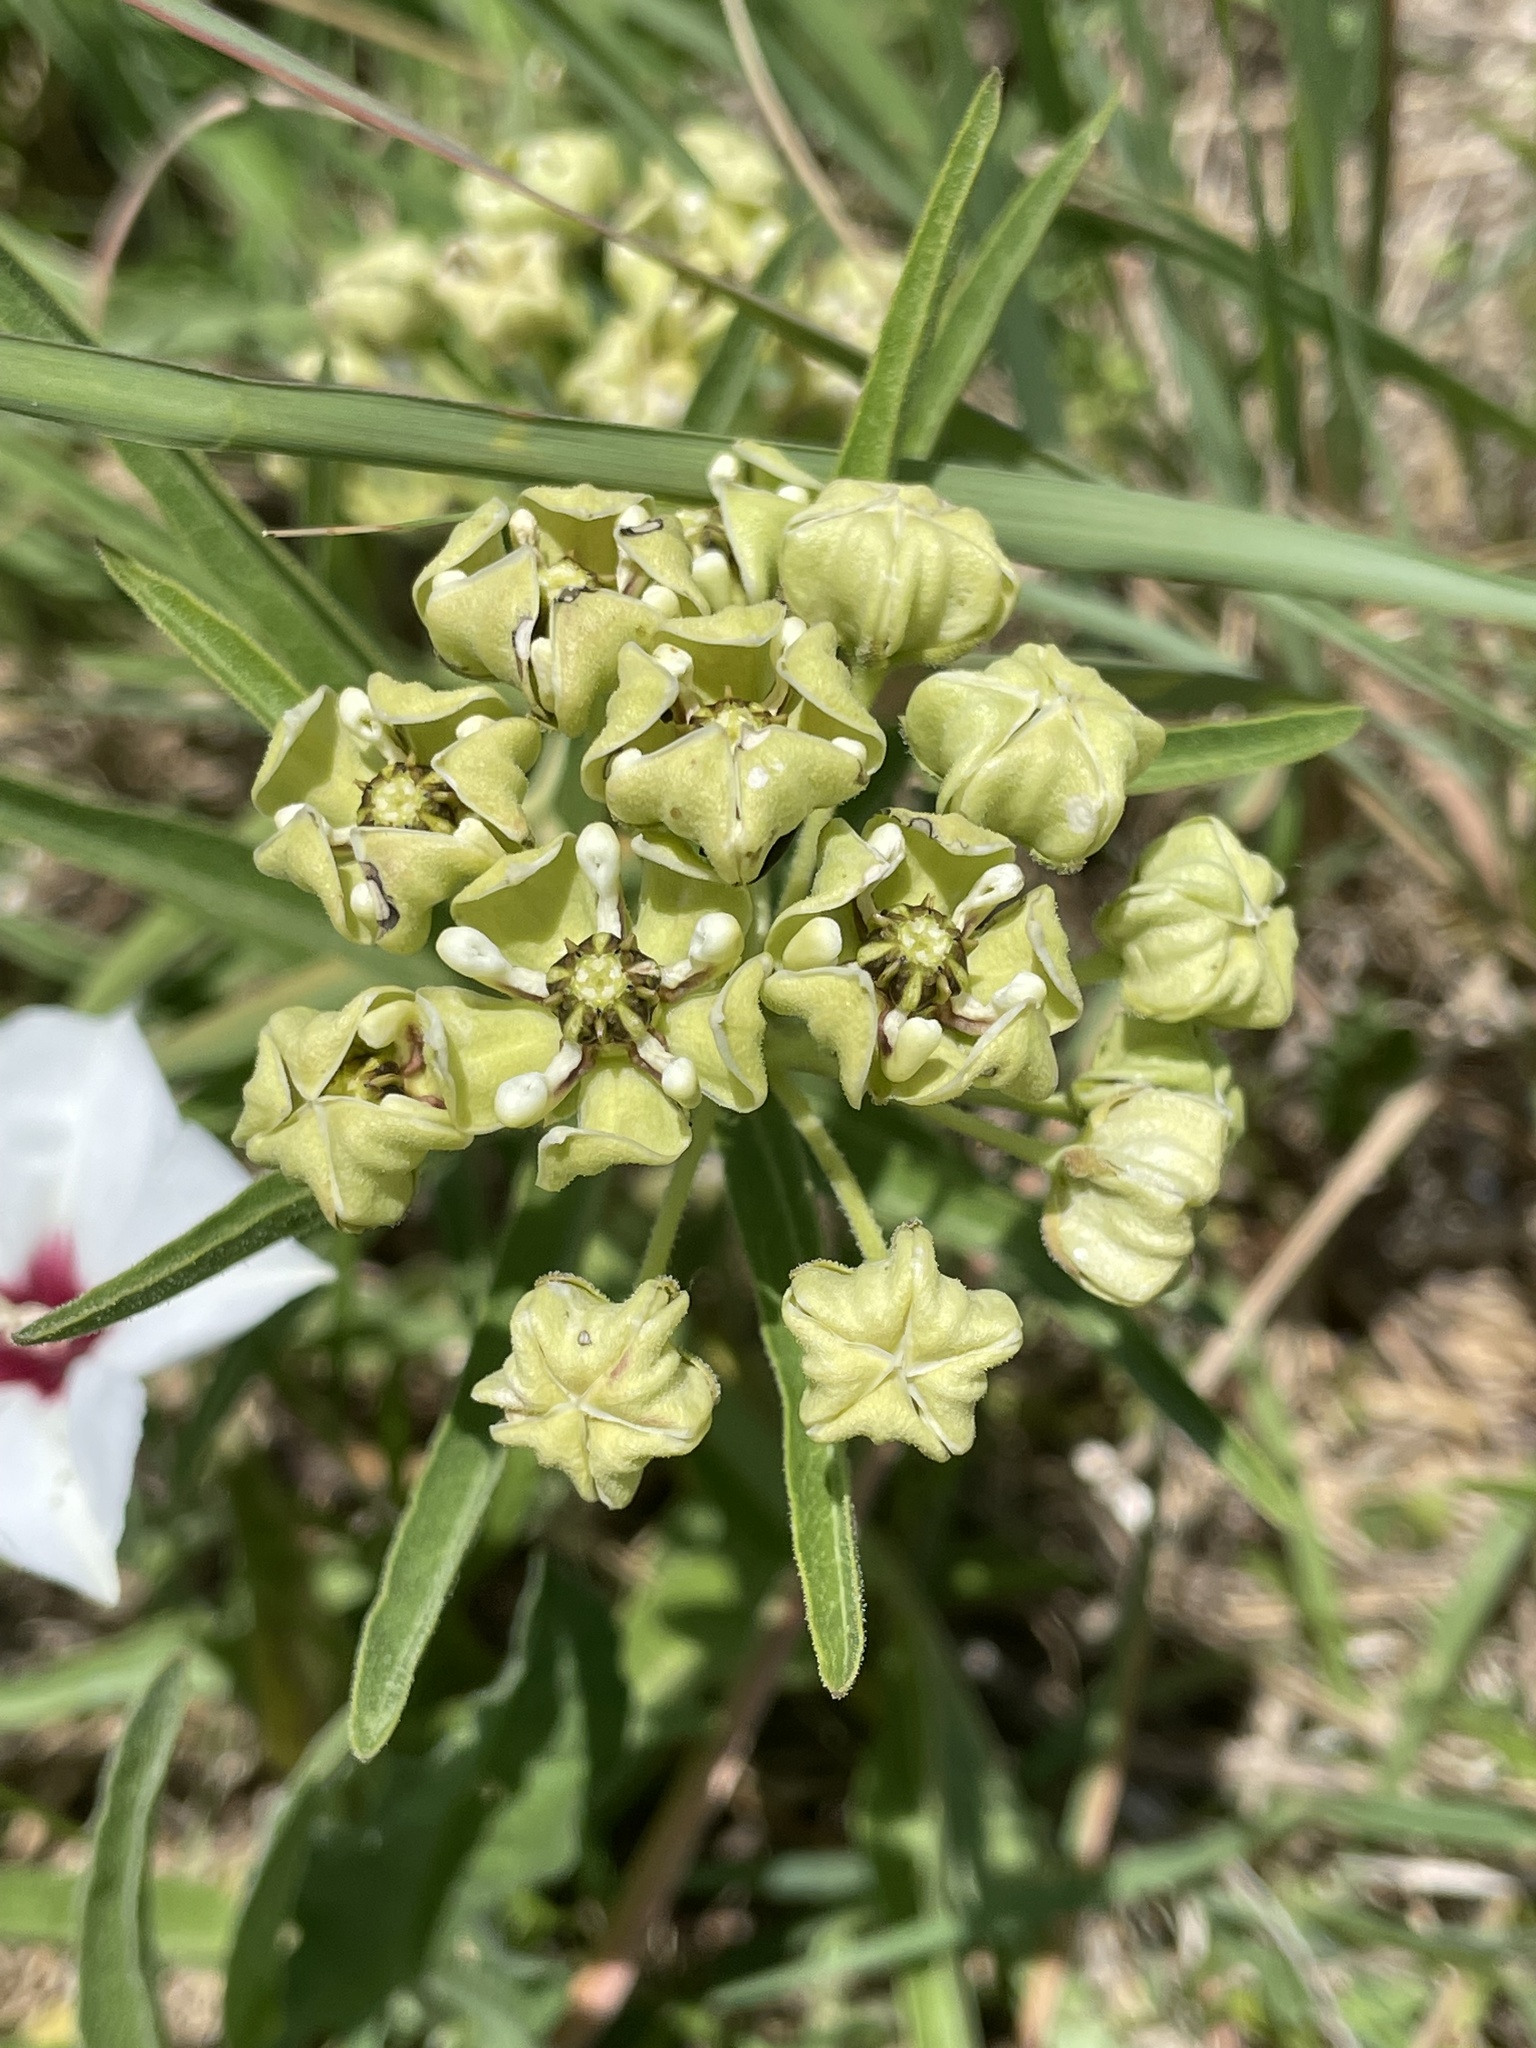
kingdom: Plantae
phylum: Tracheophyta
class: Magnoliopsida
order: Gentianales
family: Apocynaceae
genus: Asclepias
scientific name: Asclepias asperula
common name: Antelope horns
